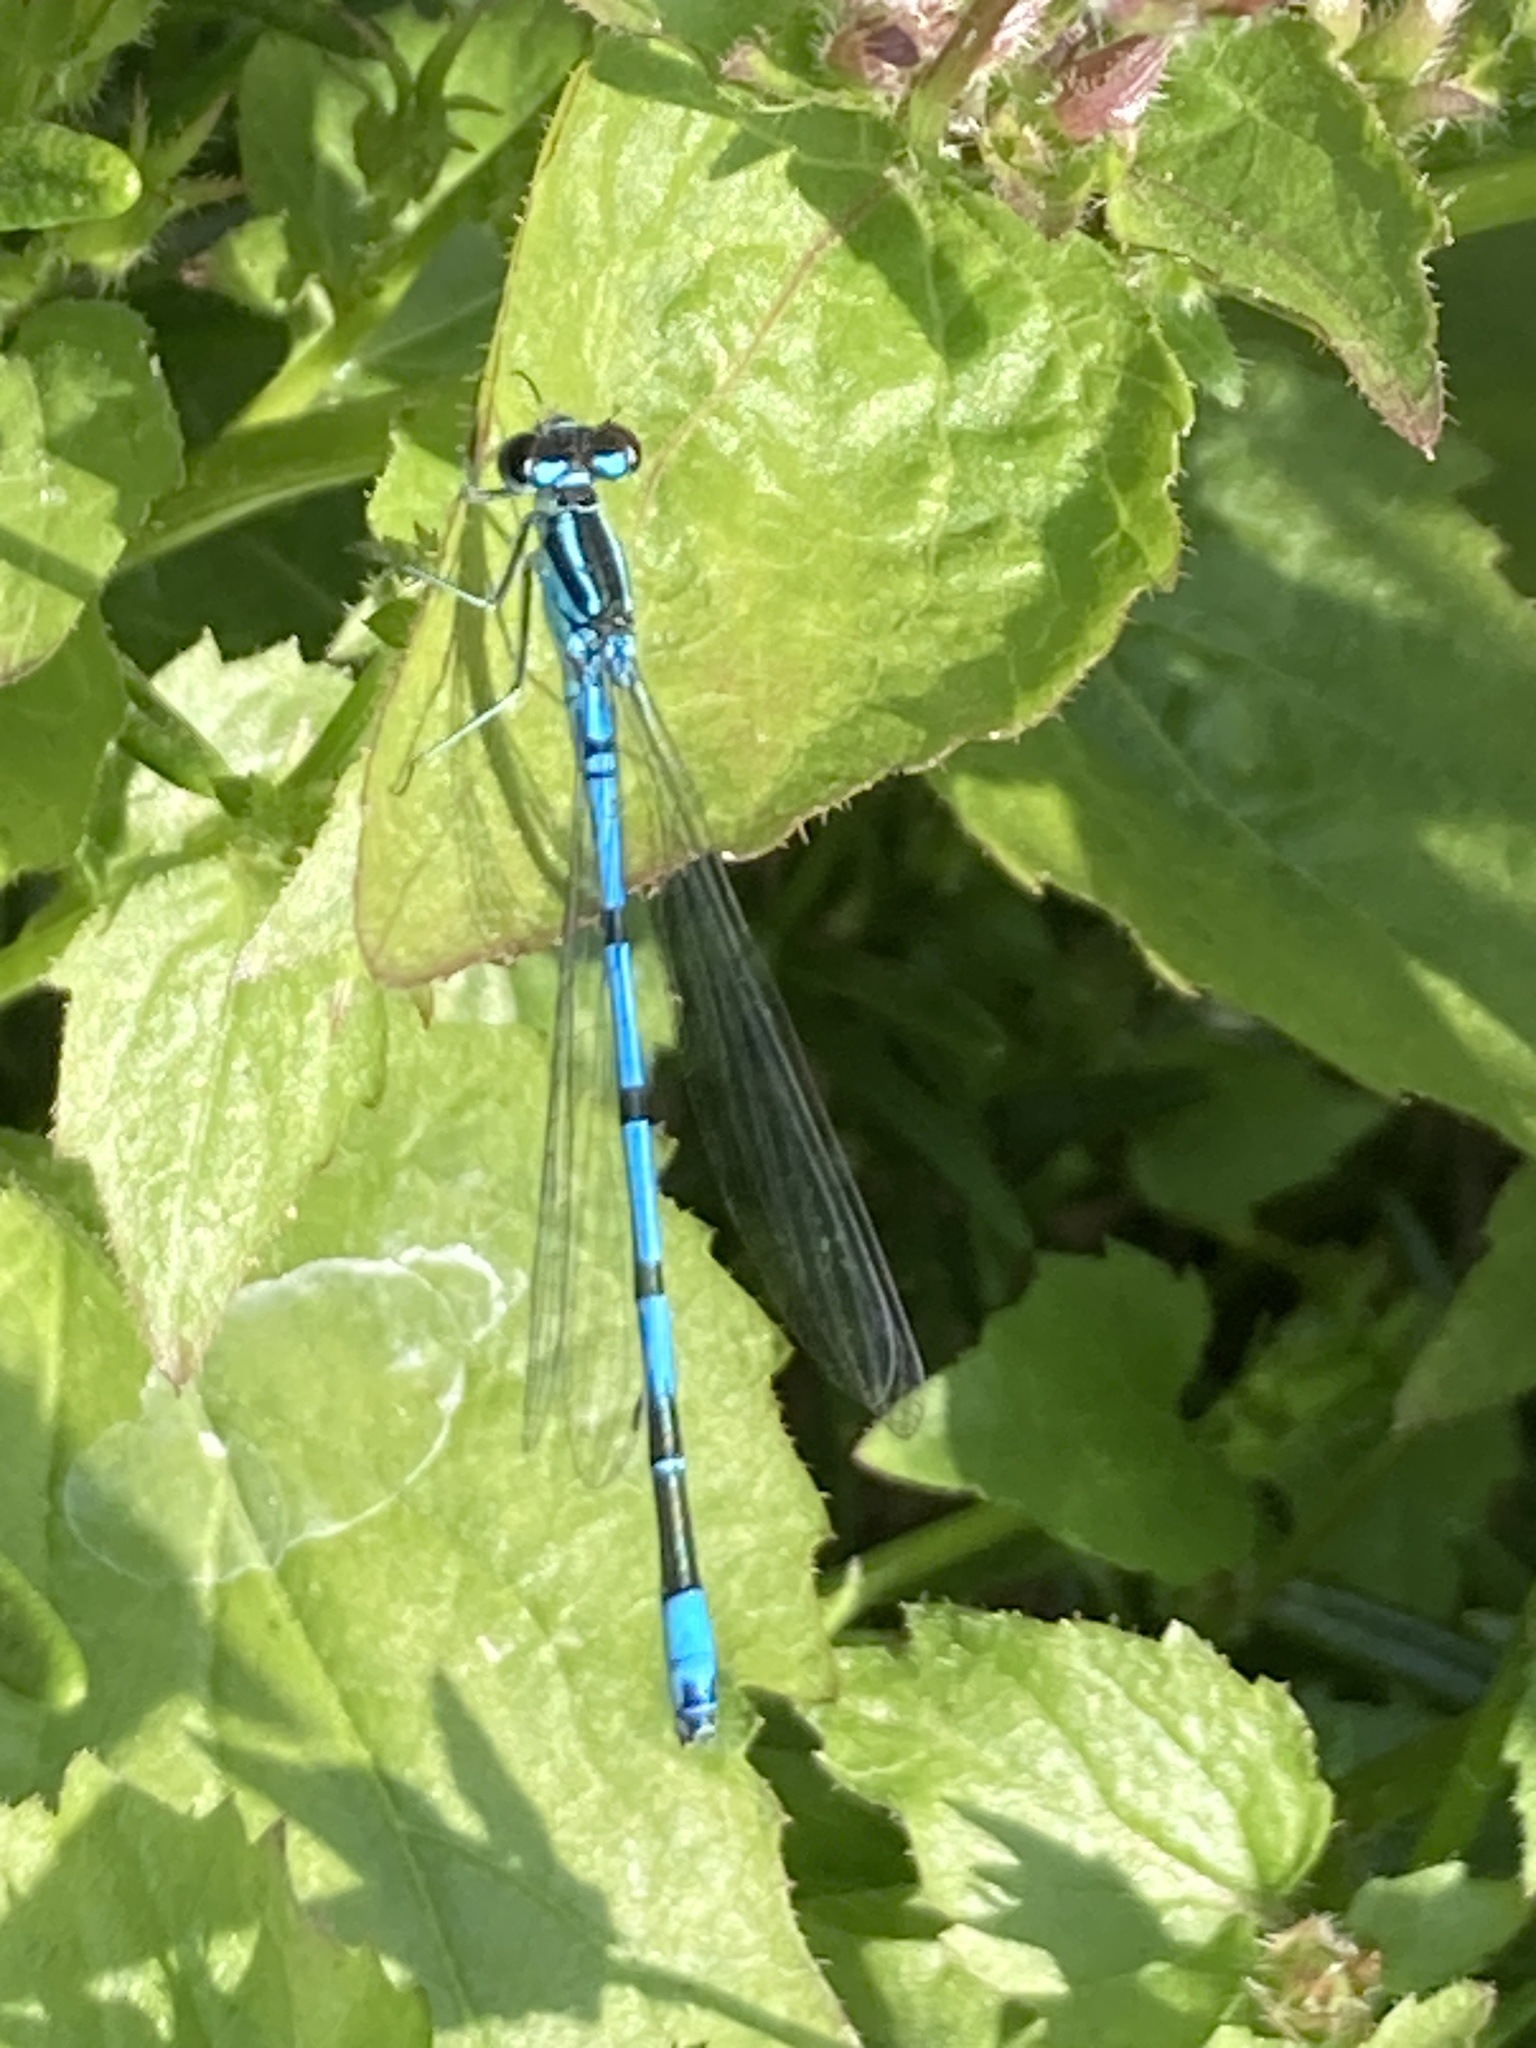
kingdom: Animalia
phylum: Arthropoda
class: Insecta
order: Odonata
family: Coenagrionidae
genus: Coenagrion
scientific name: Coenagrion puella
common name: Azure damselfly
